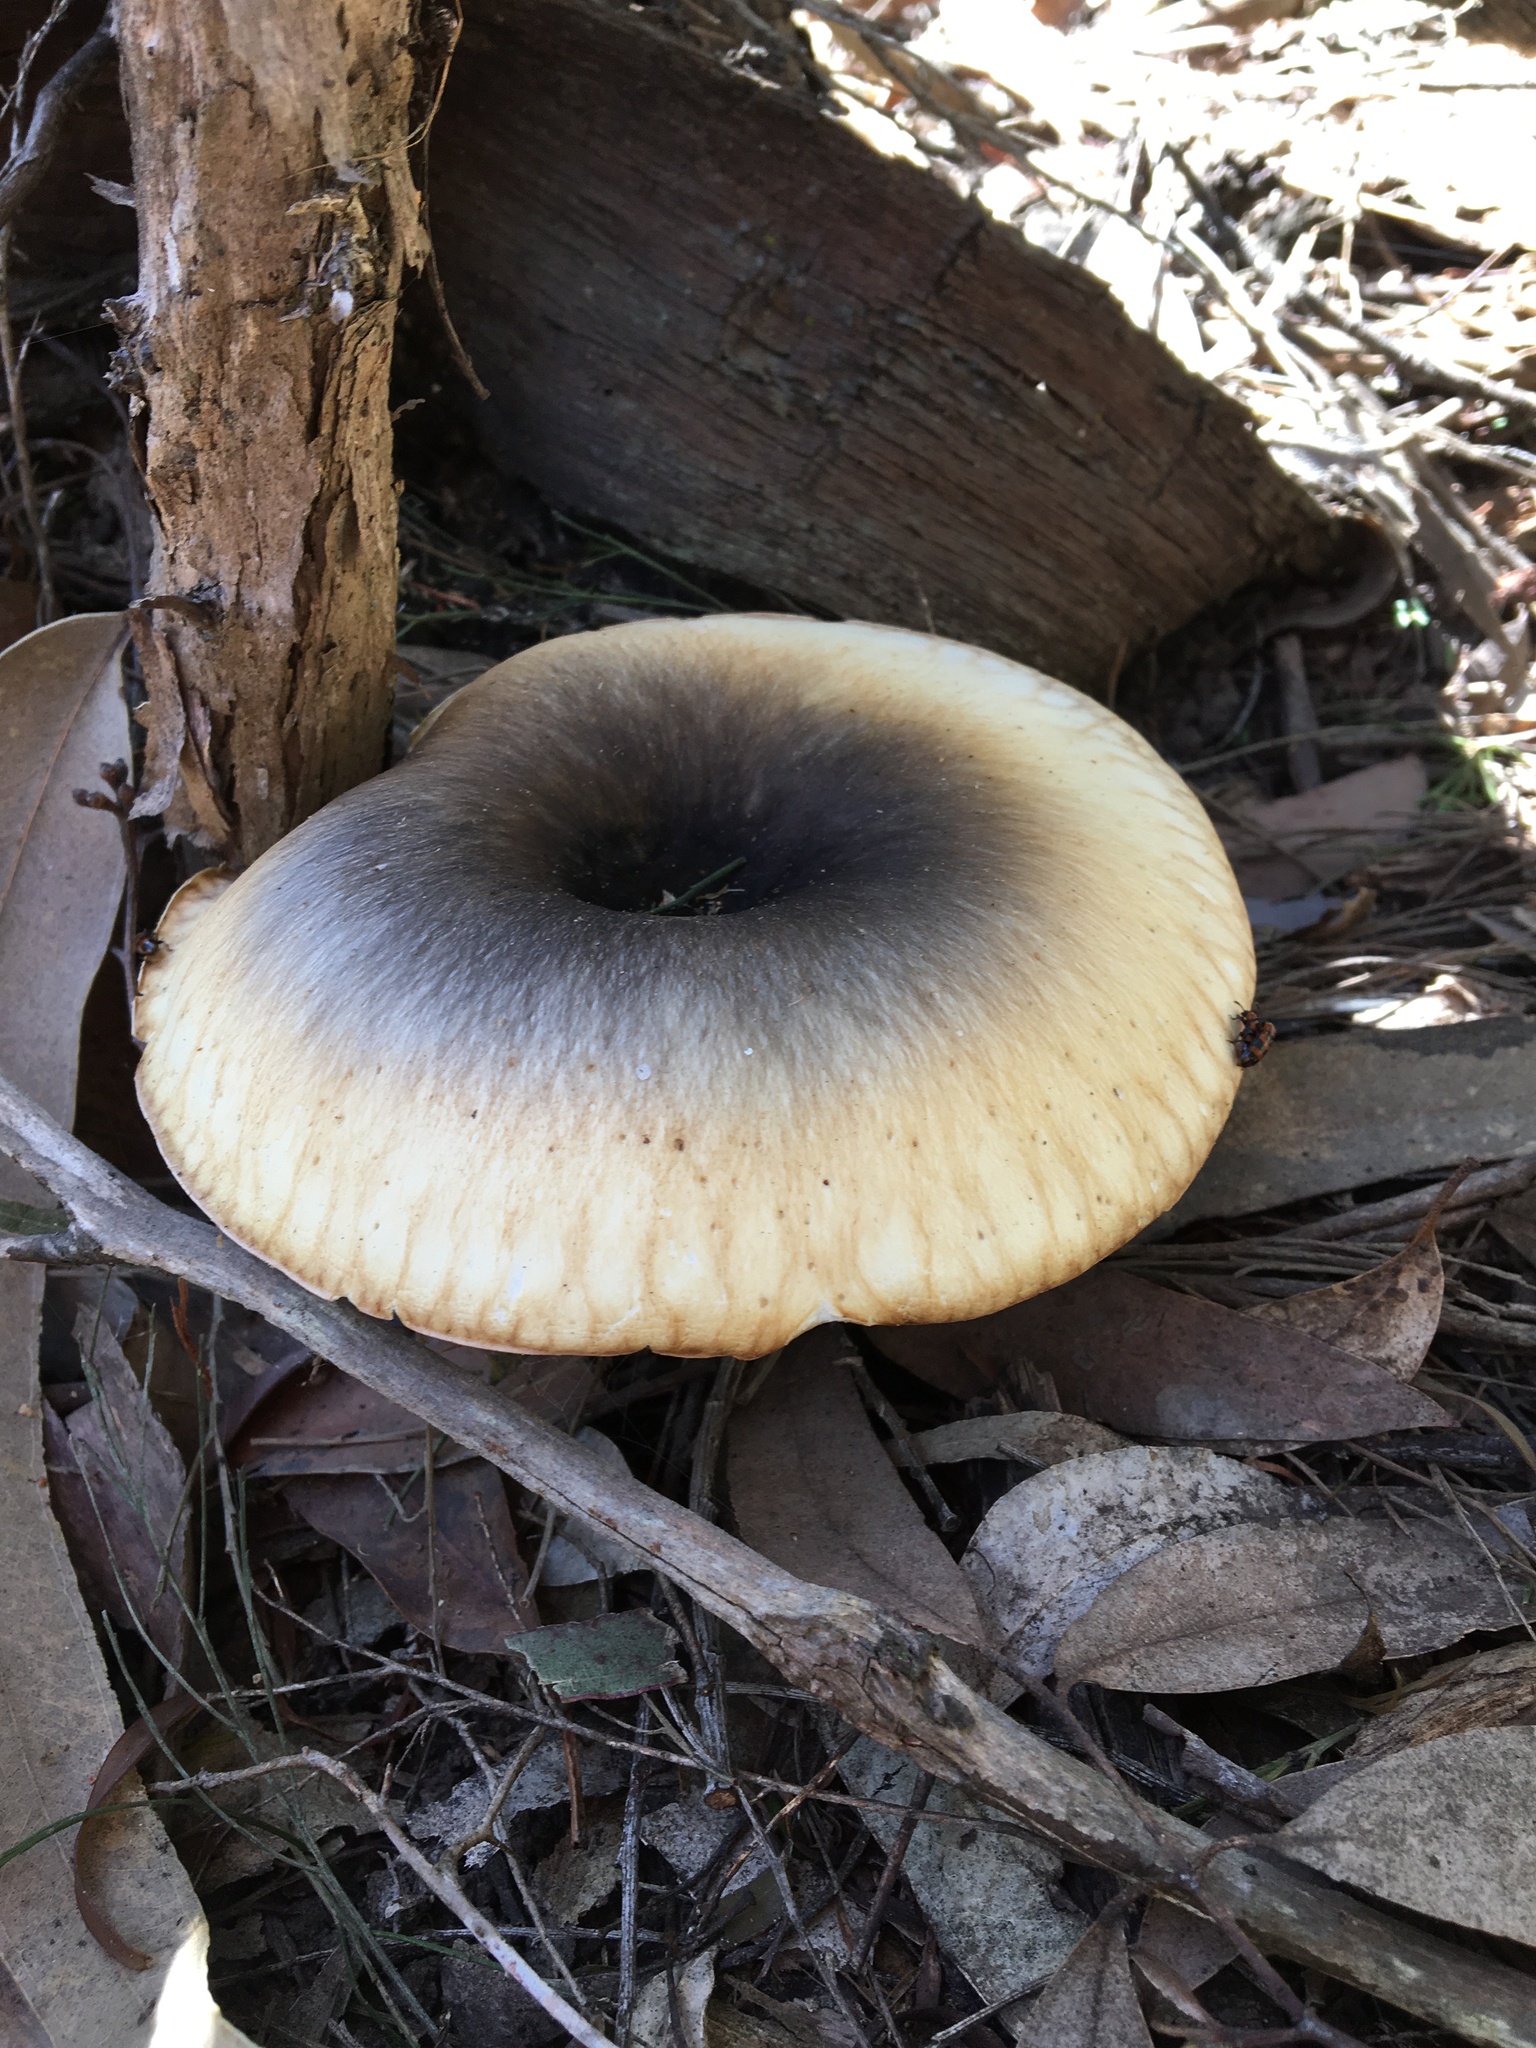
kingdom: Fungi
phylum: Basidiomycota
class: Agaricomycetes
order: Agaricales
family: Omphalotaceae
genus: Omphalotus
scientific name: Omphalotus nidiformis
